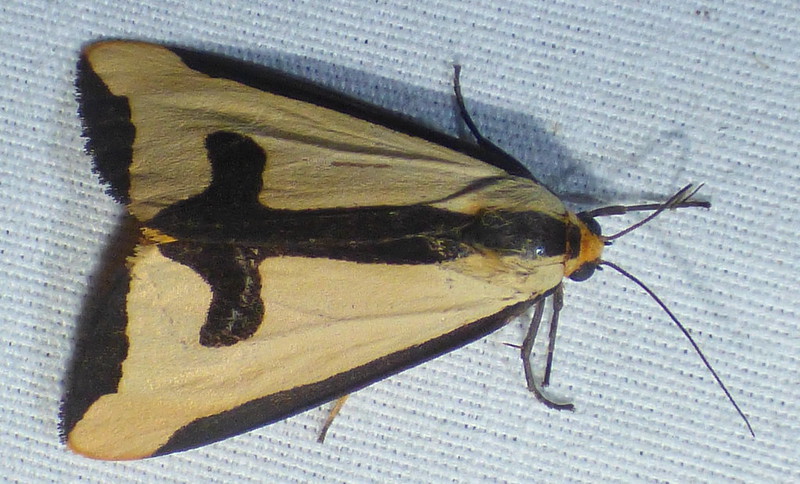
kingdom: Animalia
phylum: Arthropoda
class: Insecta
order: Lepidoptera
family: Erebidae
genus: Haploa
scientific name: Haploa clymene
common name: Clymene moth
